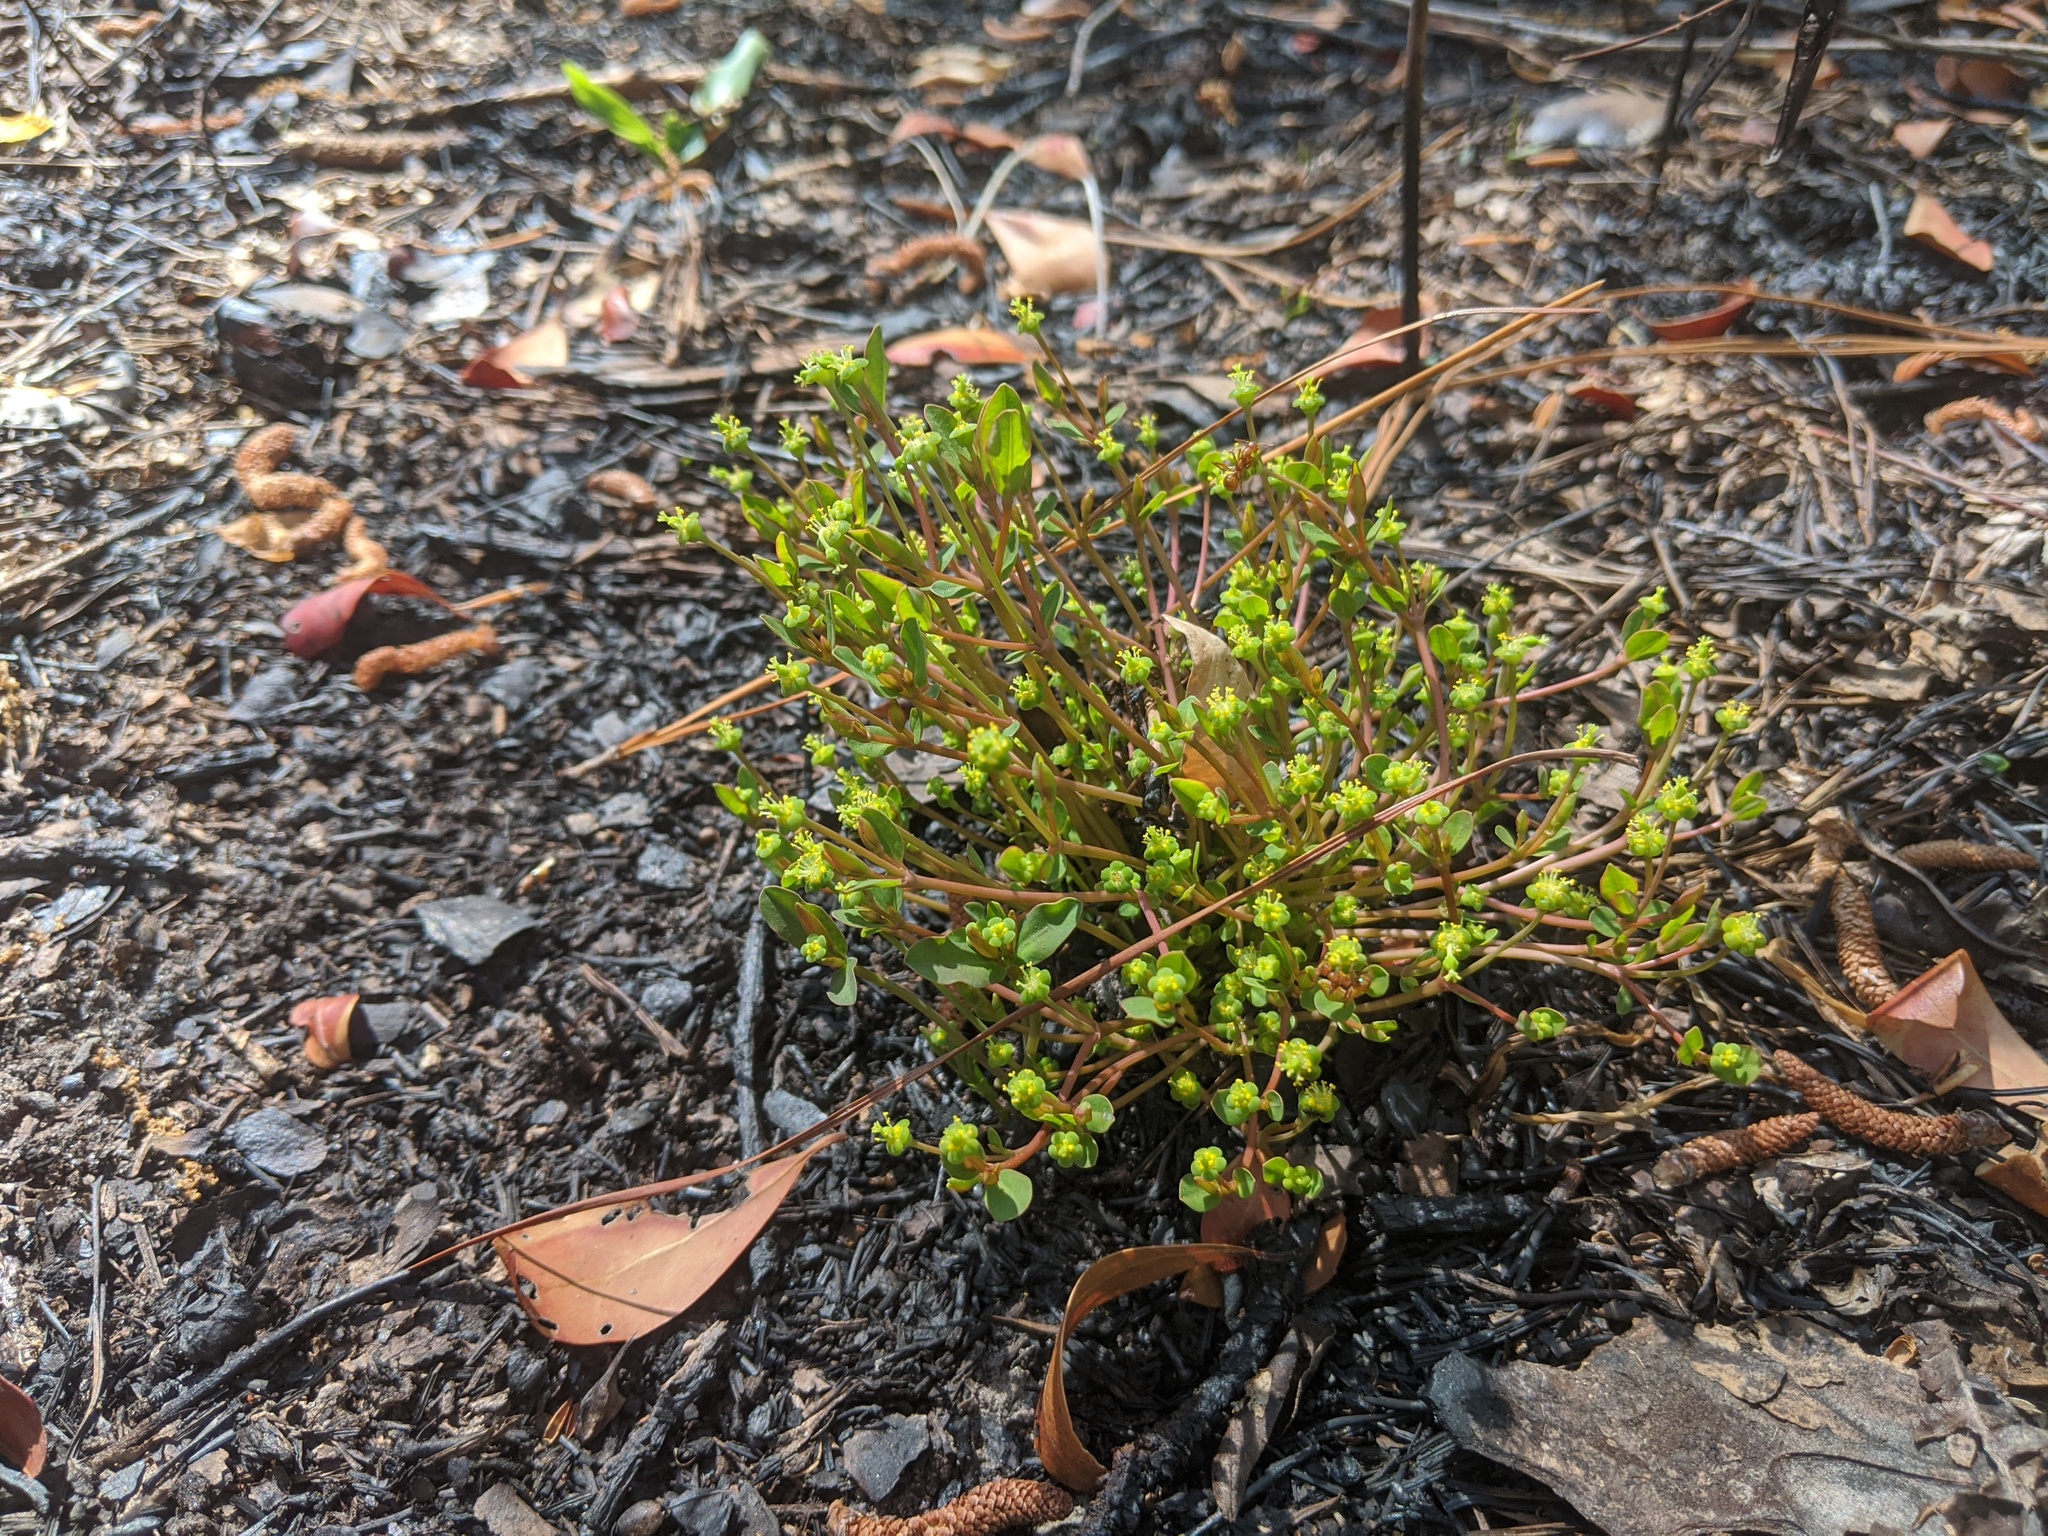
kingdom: Plantae
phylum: Tracheophyta
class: Magnoliopsida
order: Malpighiales
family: Euphorbiaceae
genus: Euphorbia
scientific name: Euphorbia ipecacuanhae
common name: Carolina ipecac
